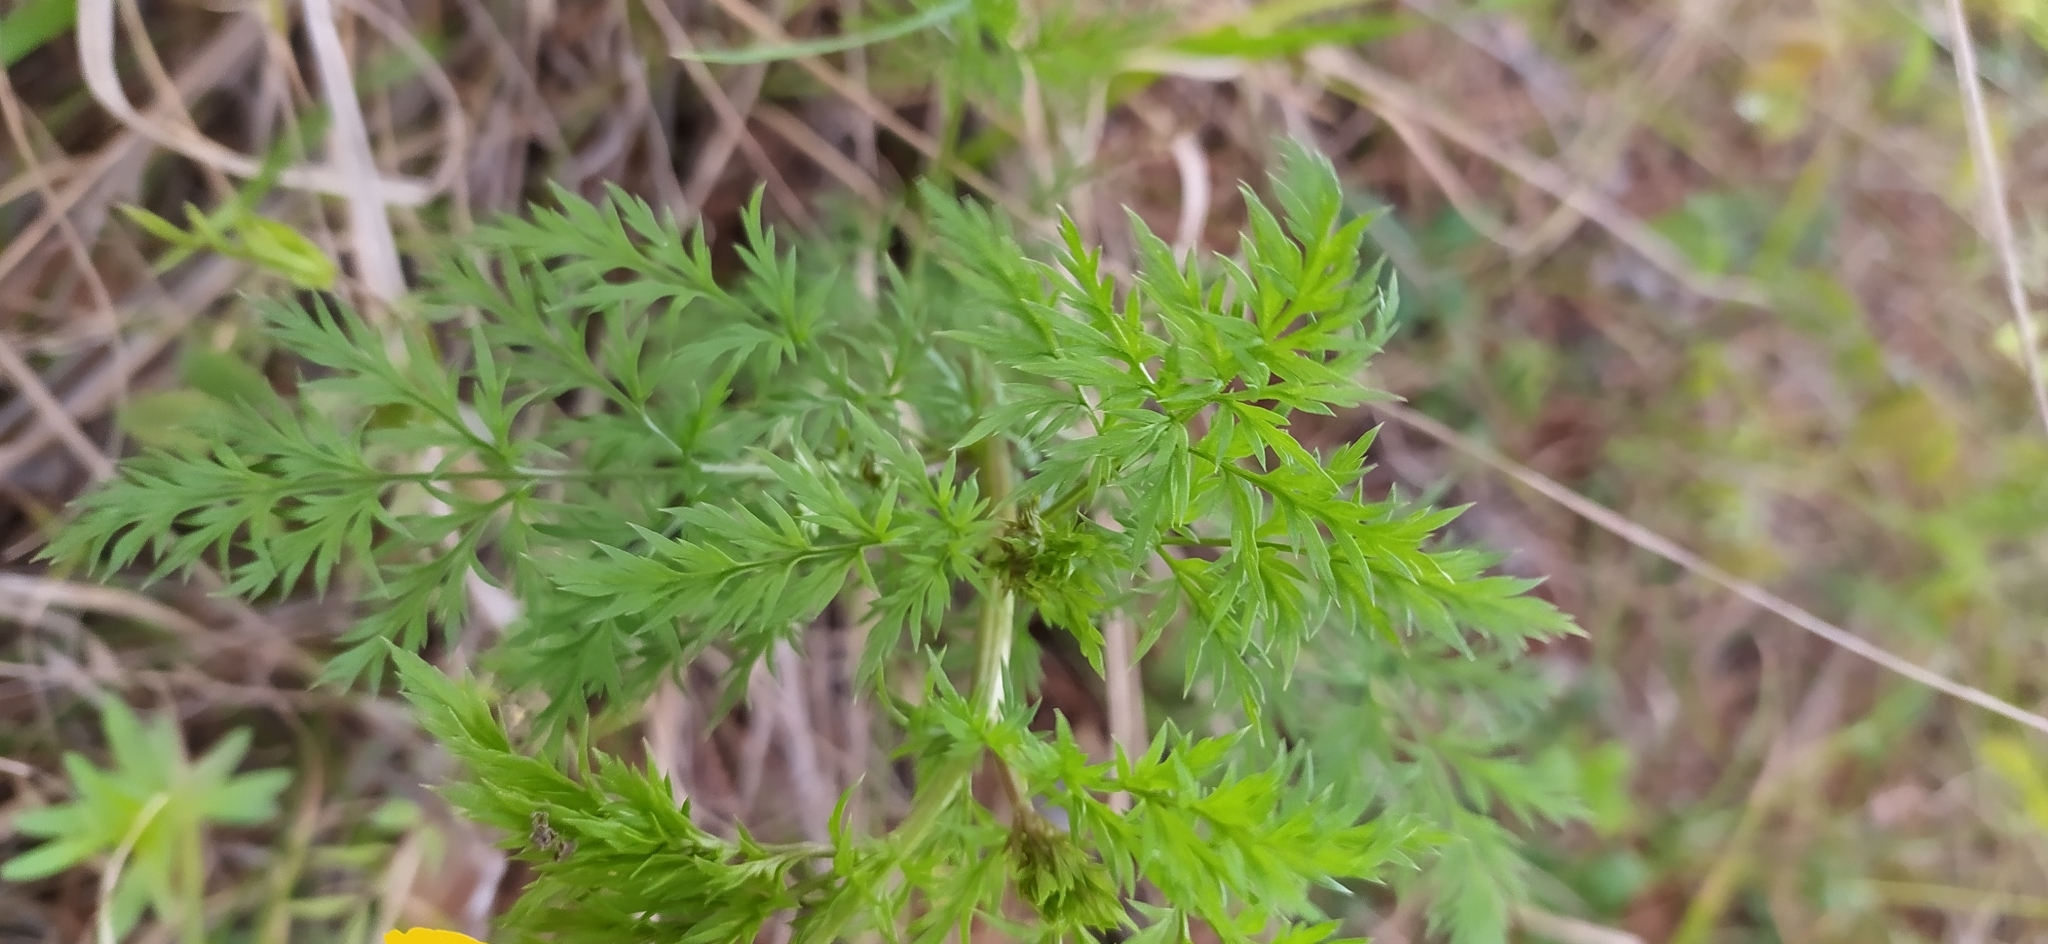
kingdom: Plantae
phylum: Tracheophyta
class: Magnoliopsida
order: Ranunculales
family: Ranunculaceae
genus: Adonis
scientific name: Adonis
